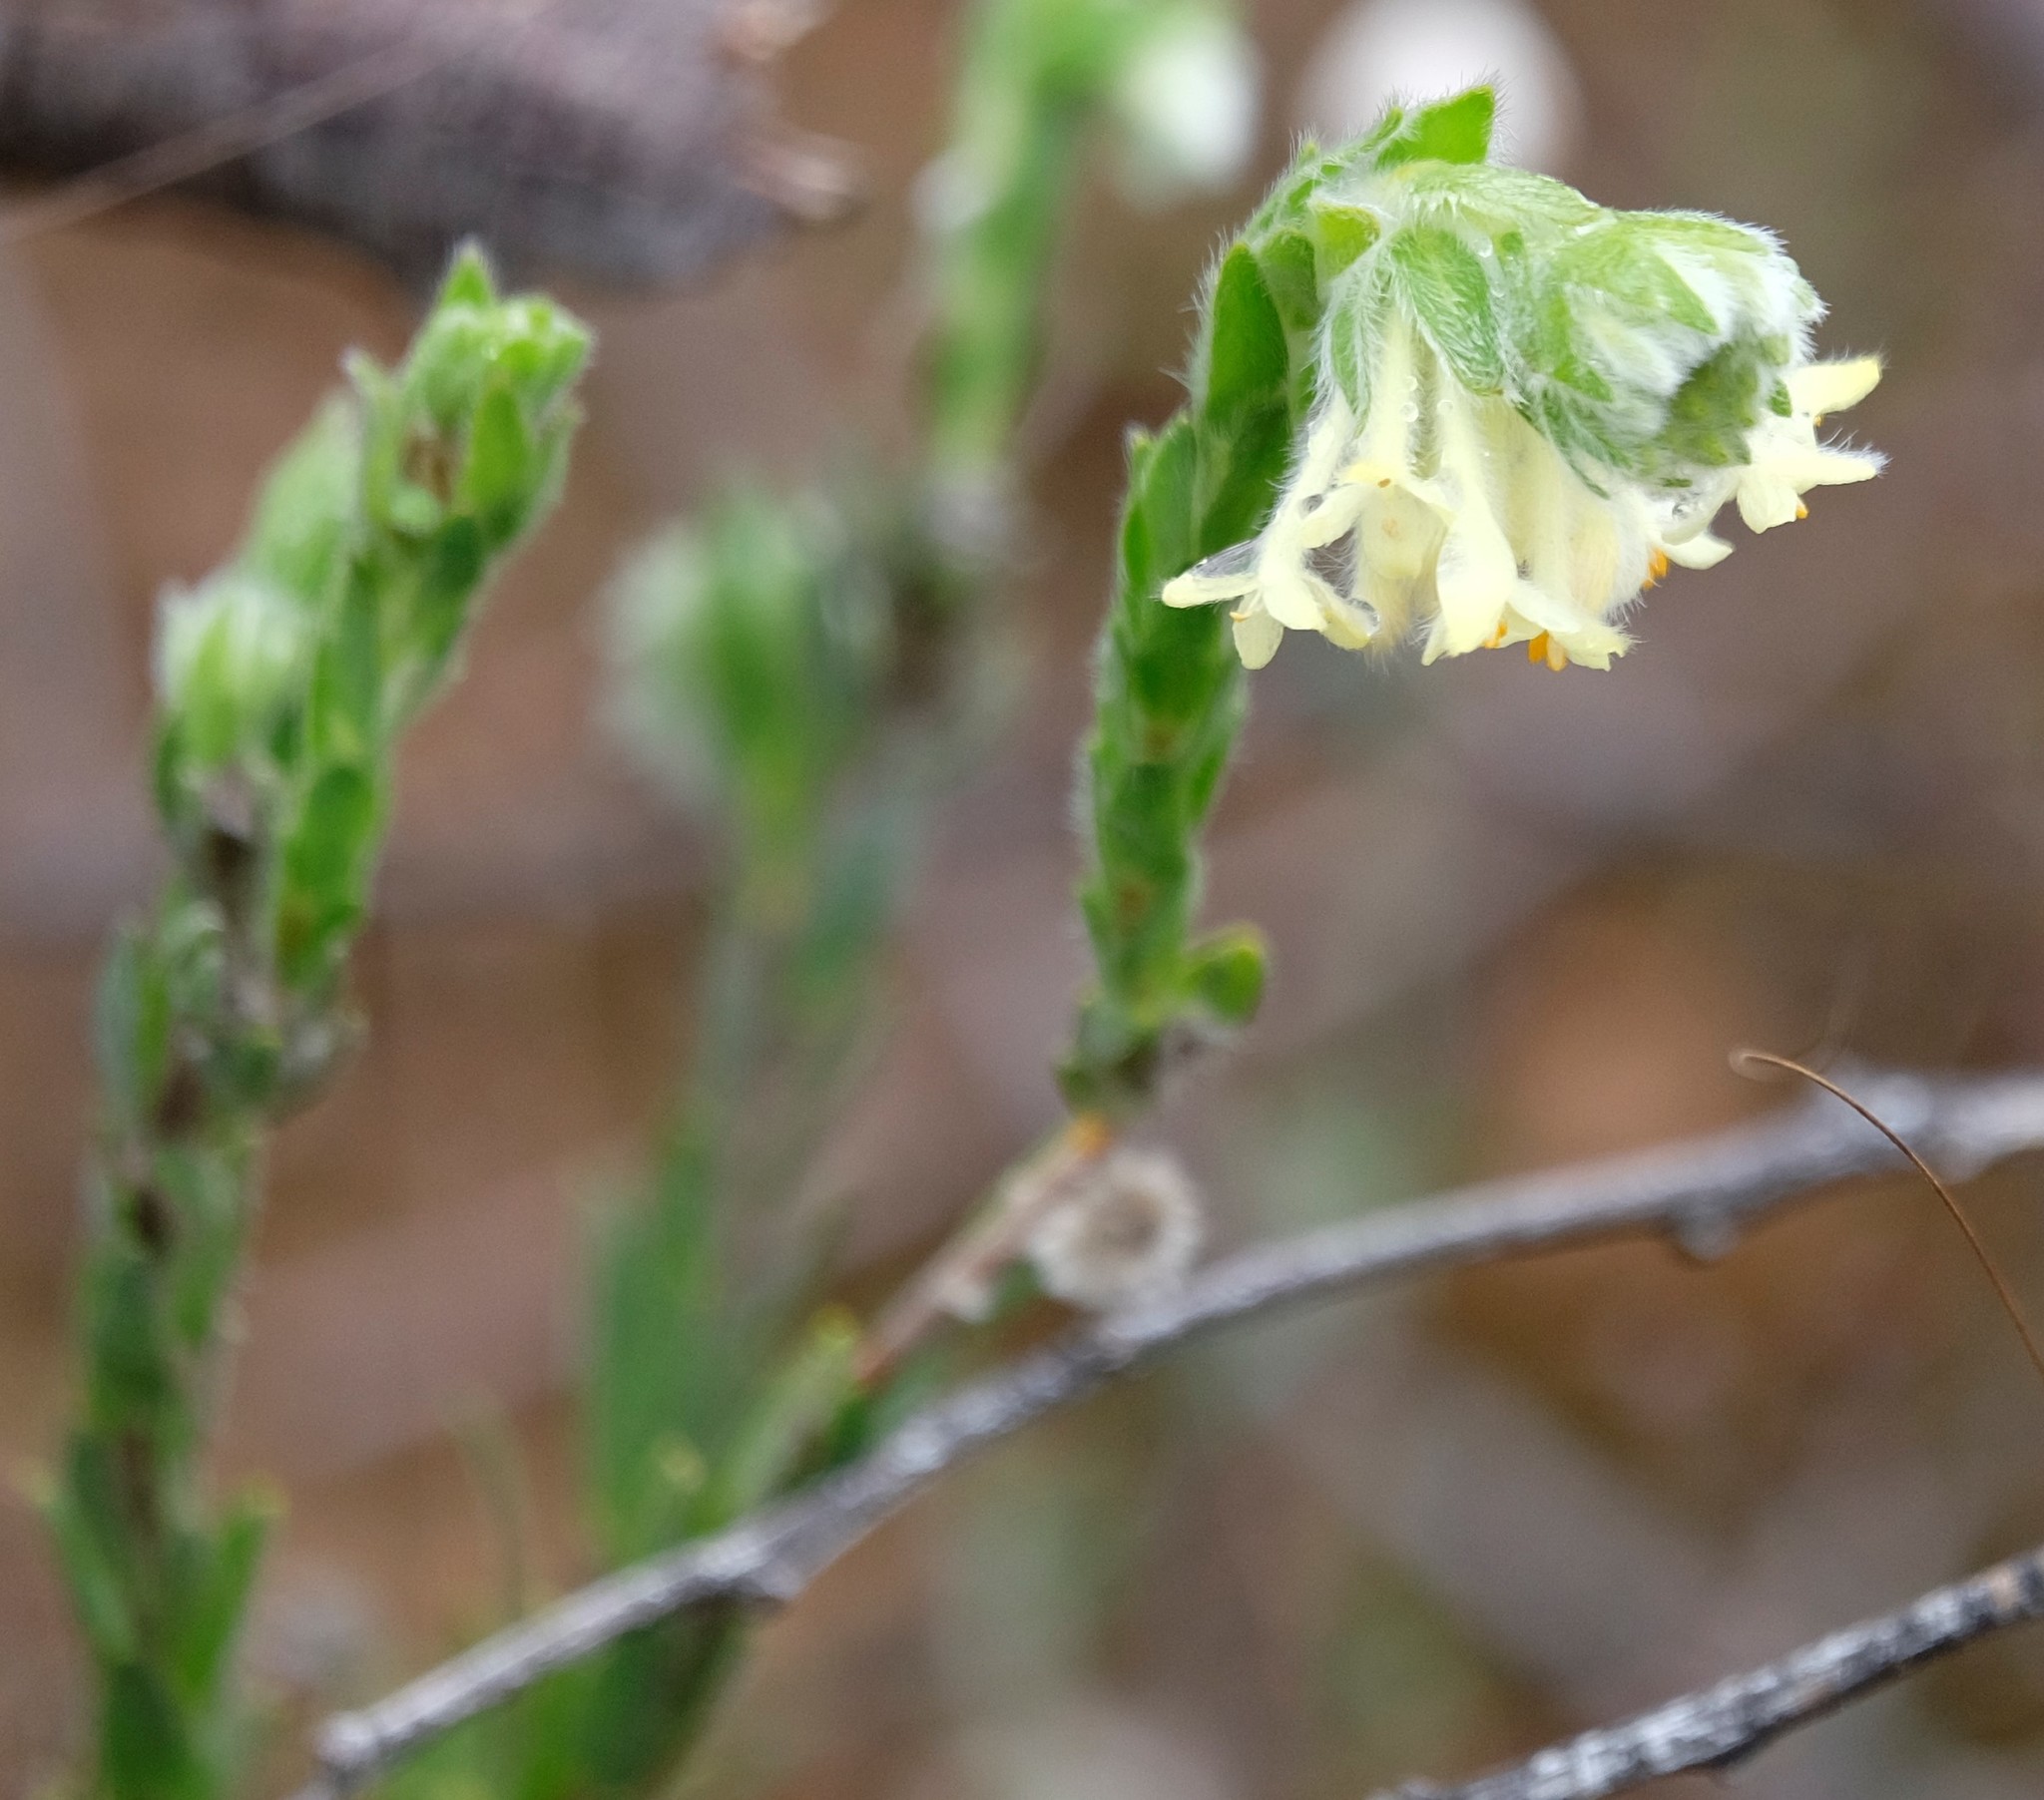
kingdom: Plantae
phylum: Tracheophyta
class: Magnoliopsida
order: Malvales
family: Thymelaeaceae
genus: Pimelea
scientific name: Pimelea octophylla
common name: Woolly riceflower
